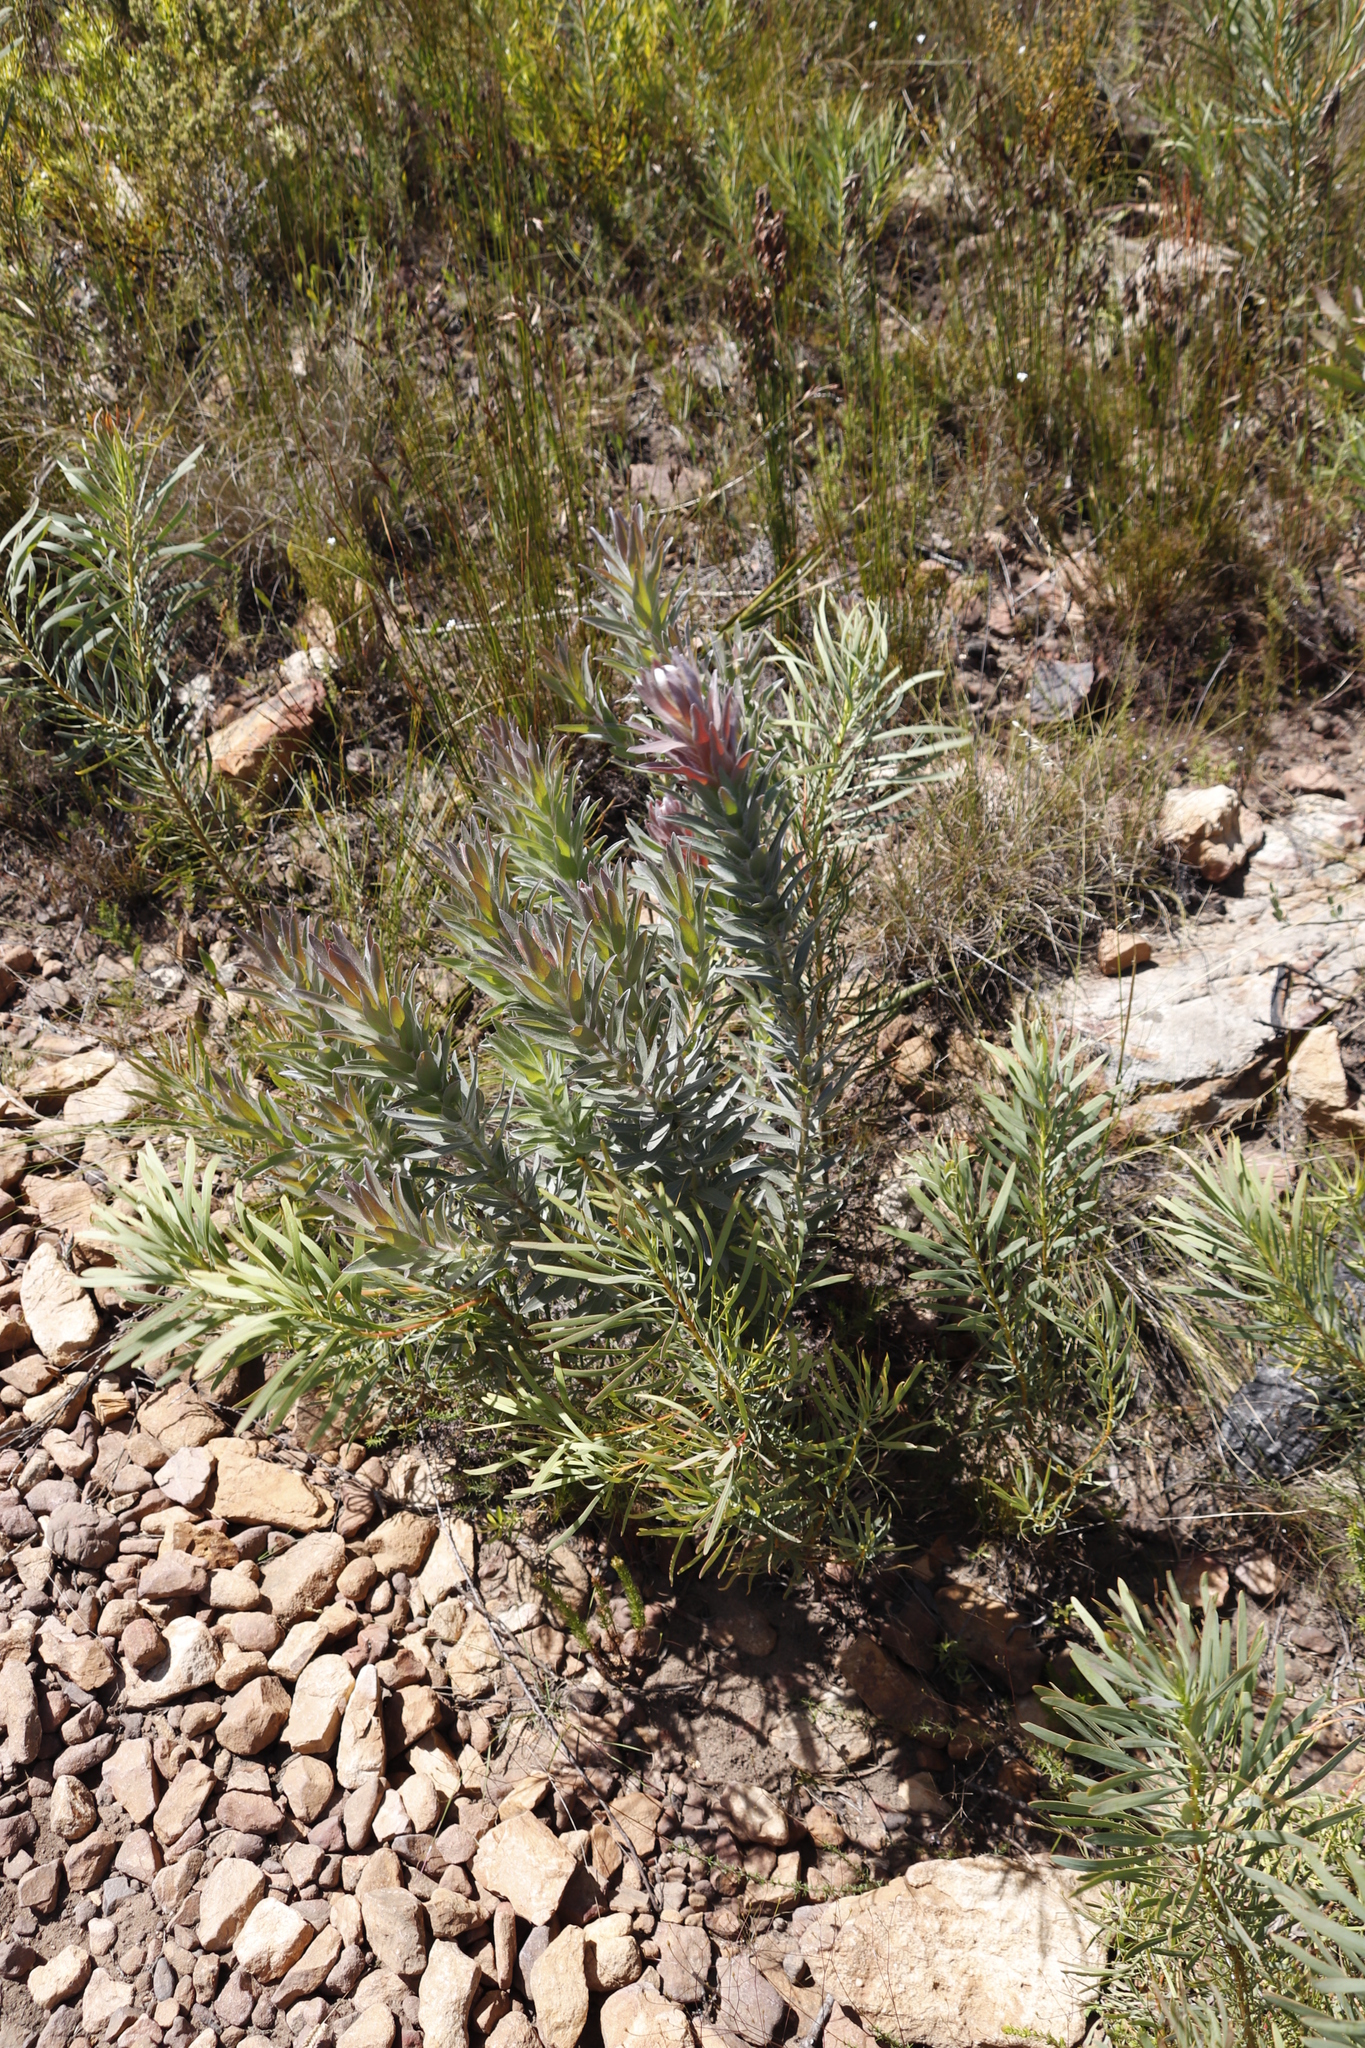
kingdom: Plantae
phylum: Tracheophyta
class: Magnoliopsida
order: Proteales
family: Proteaceae
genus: Protea
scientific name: Protea coronata
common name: Green sugarbush
